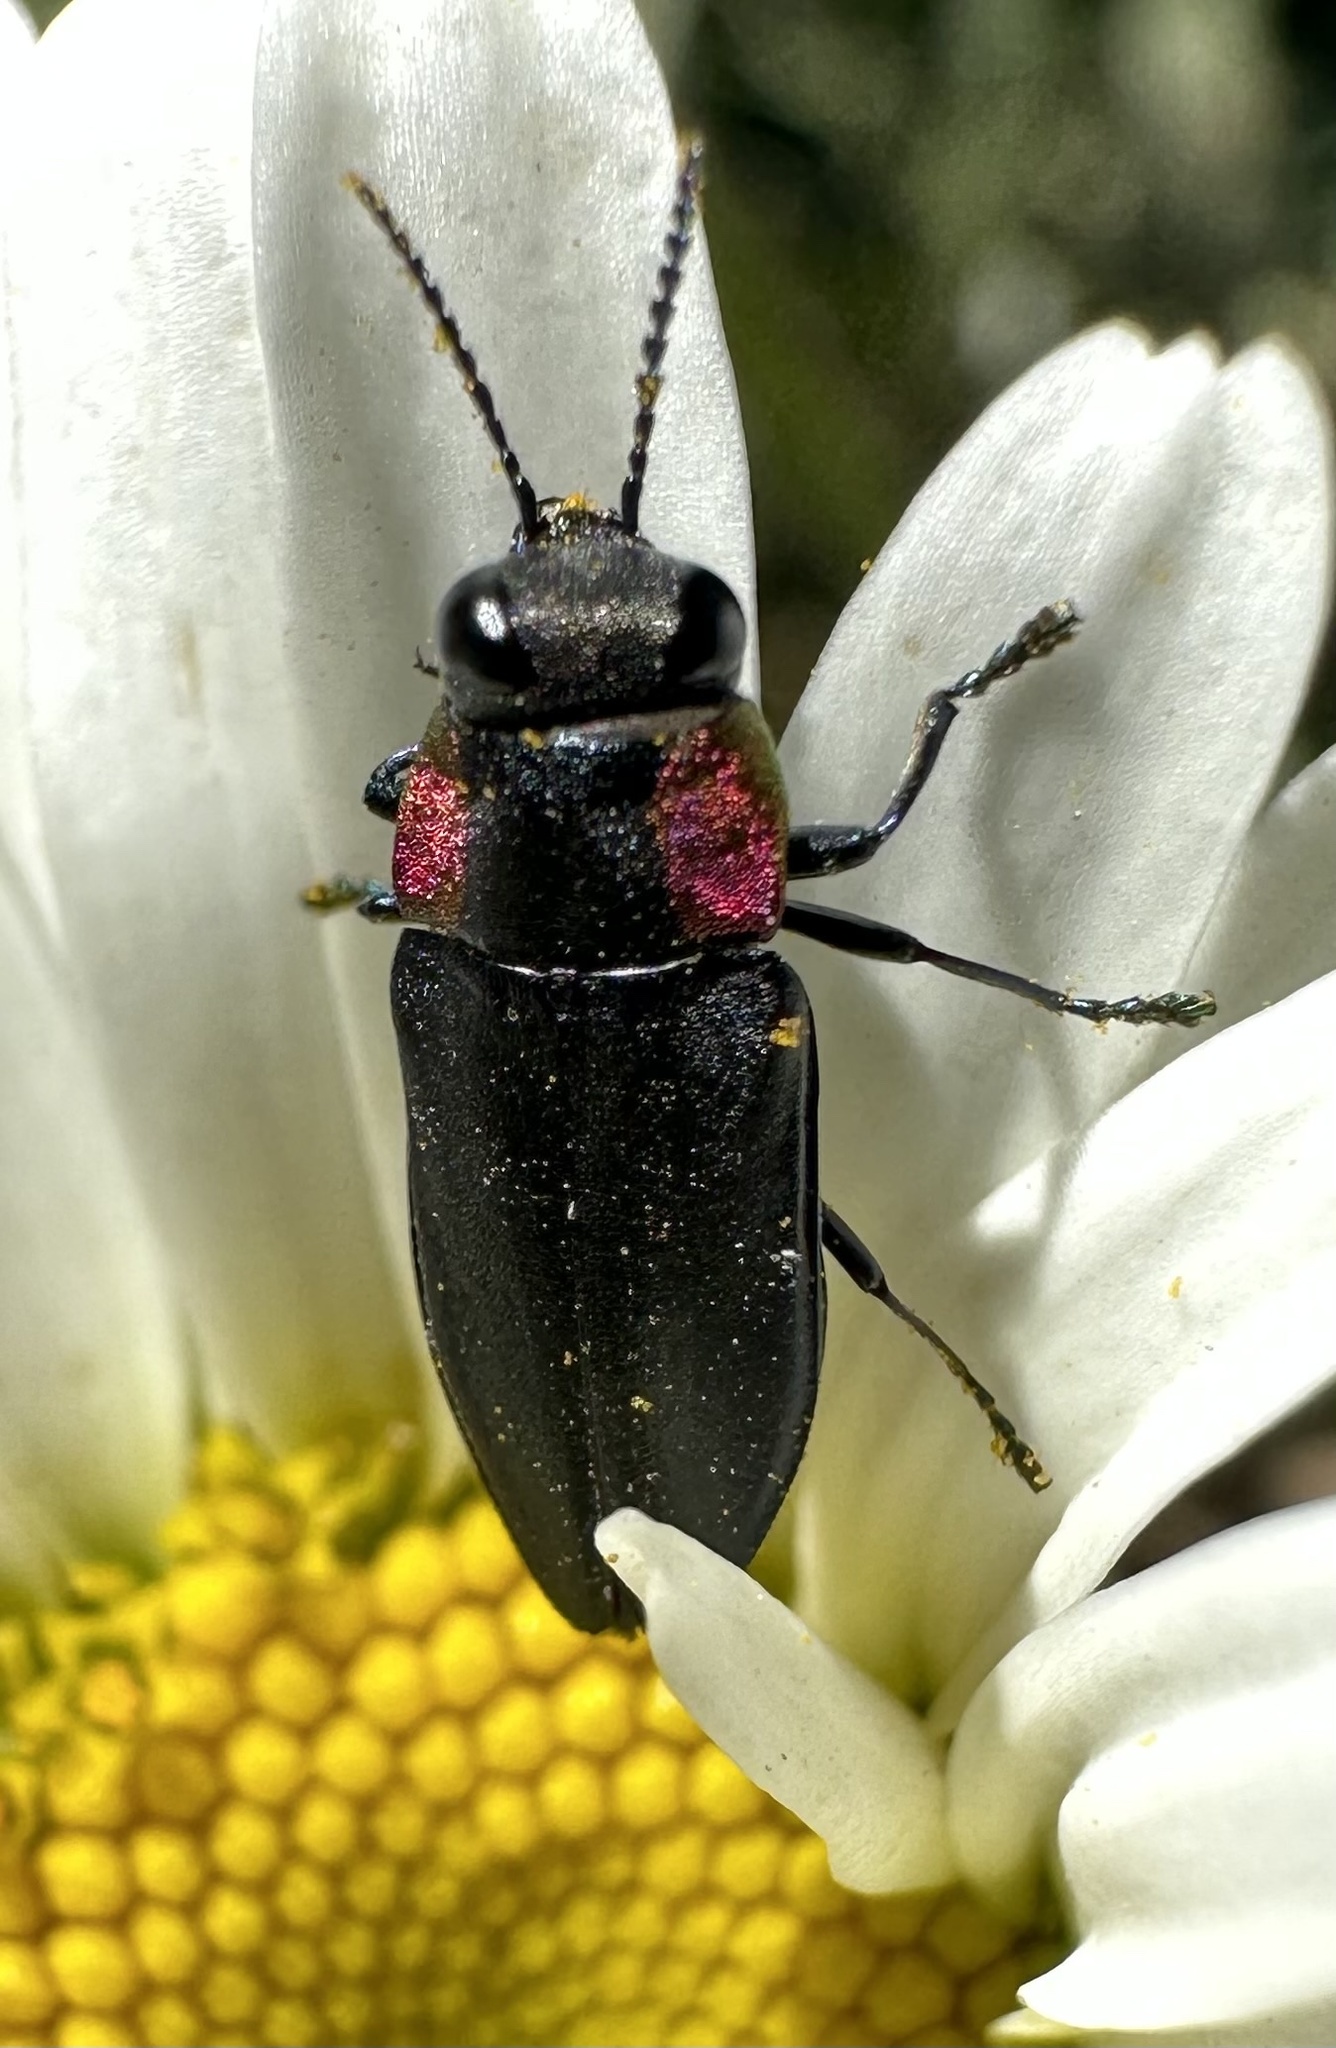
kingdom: Animalia
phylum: Arthropoda
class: Insecta
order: Coleoptera
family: Buprestidae
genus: Romanophora
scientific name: Romanophora verecunda
